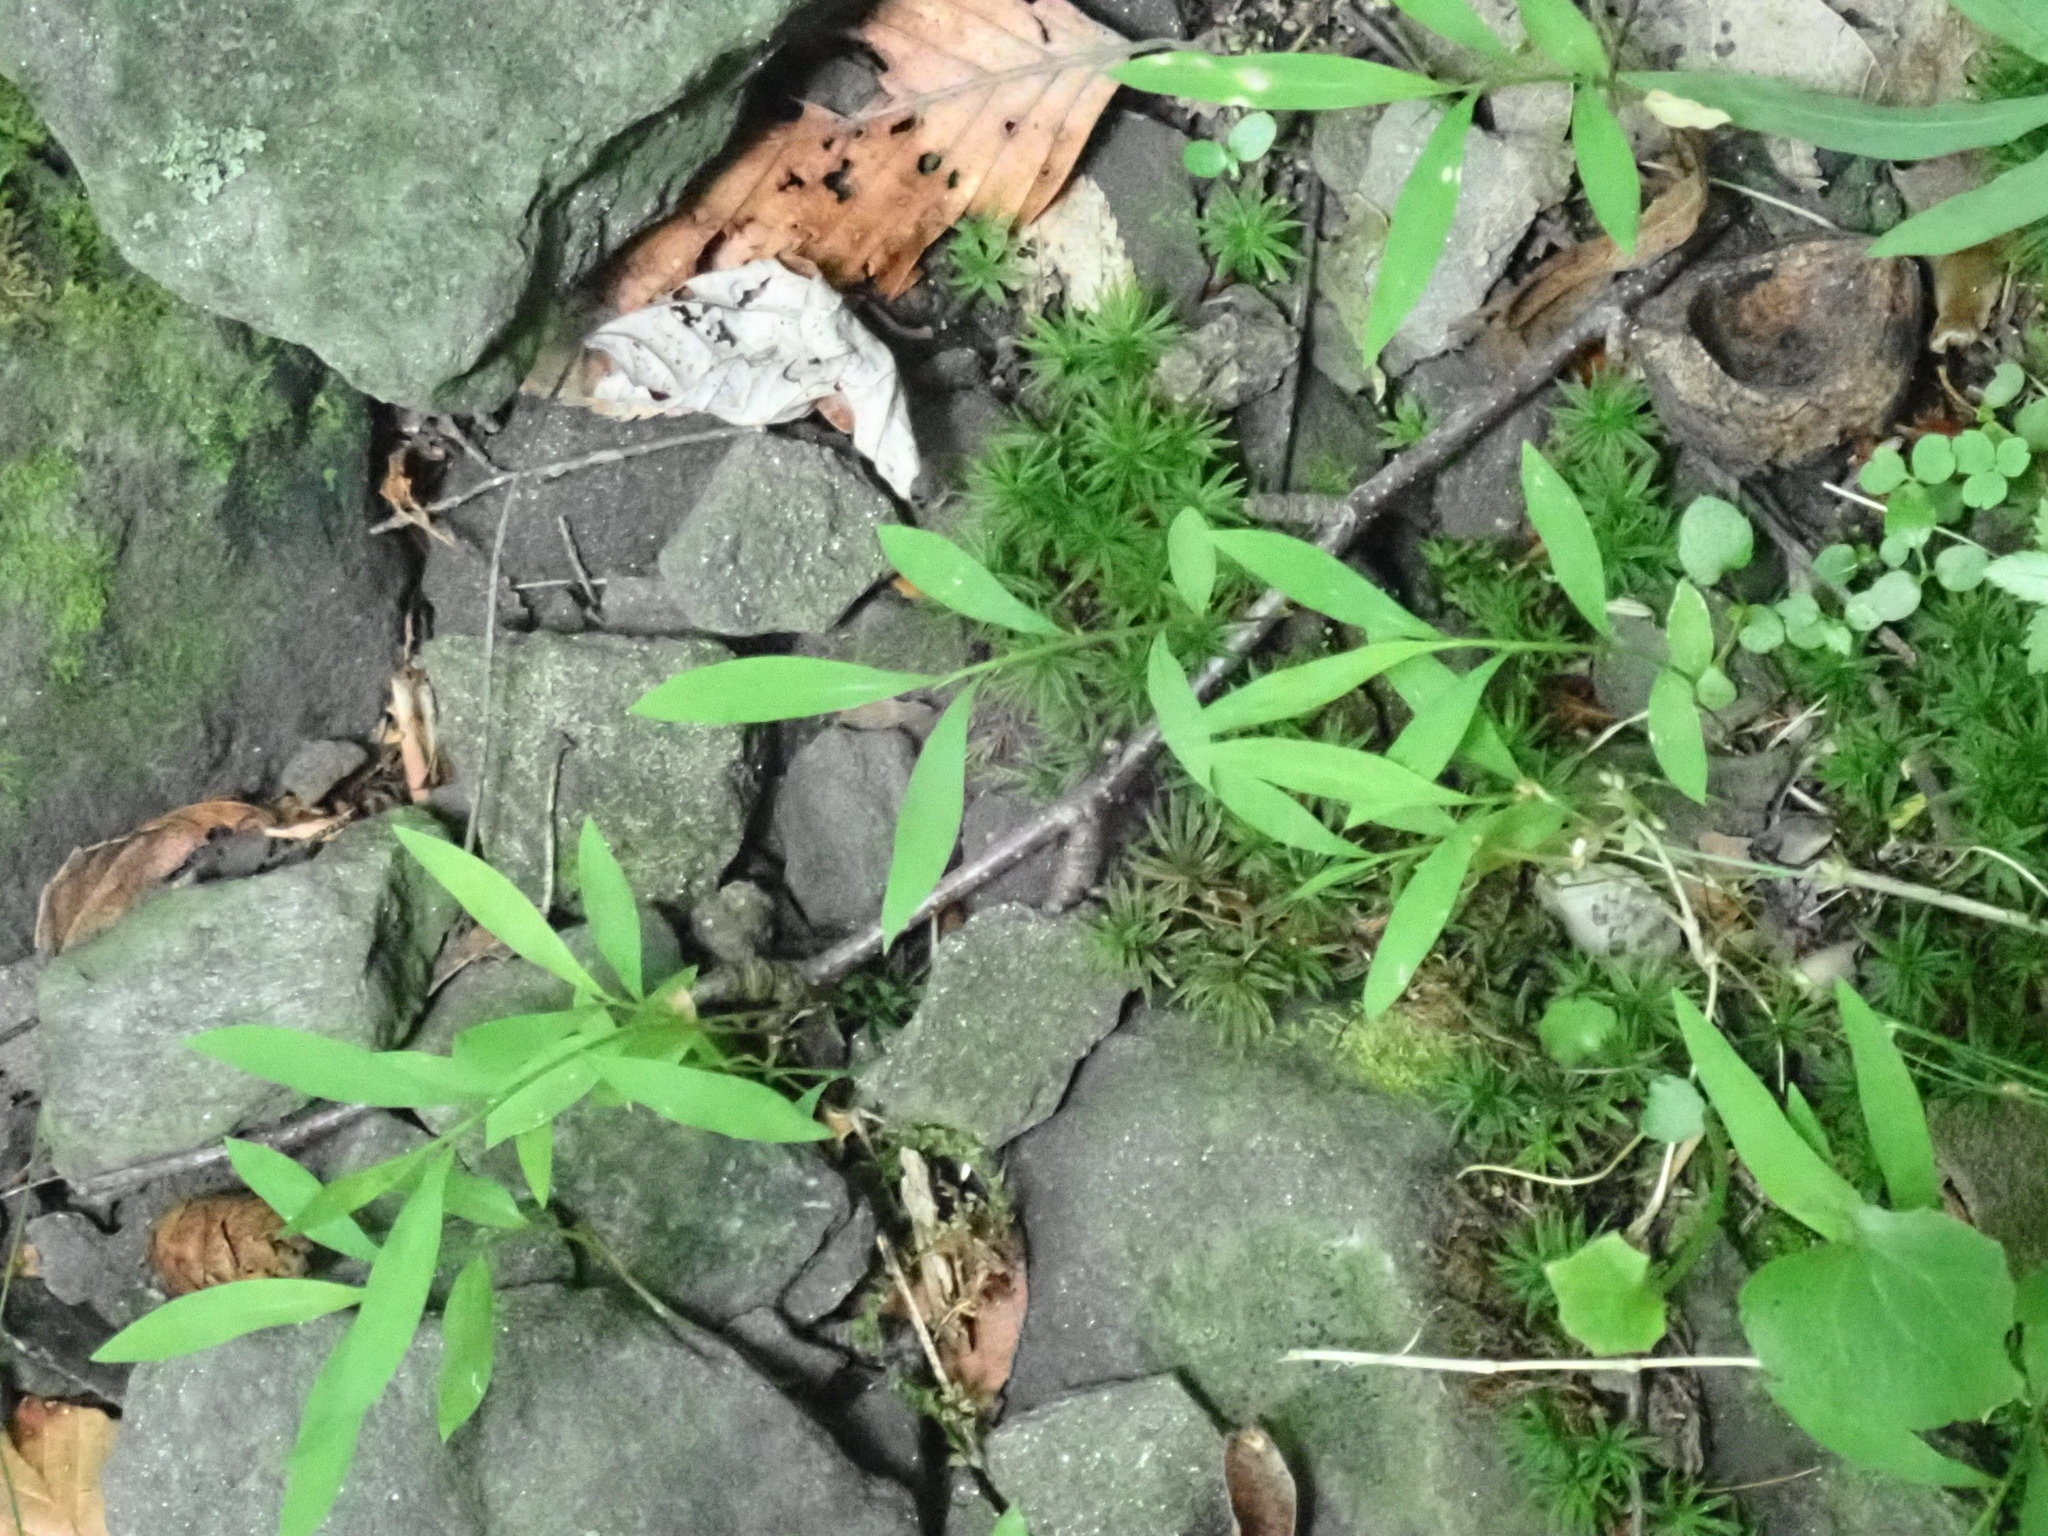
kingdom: Plantae
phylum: Tracheophyta
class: Liliopsida
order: Poales
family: Poaceae
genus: Microstegium
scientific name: Microstegium vimineum
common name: Japanese stiltgrass
